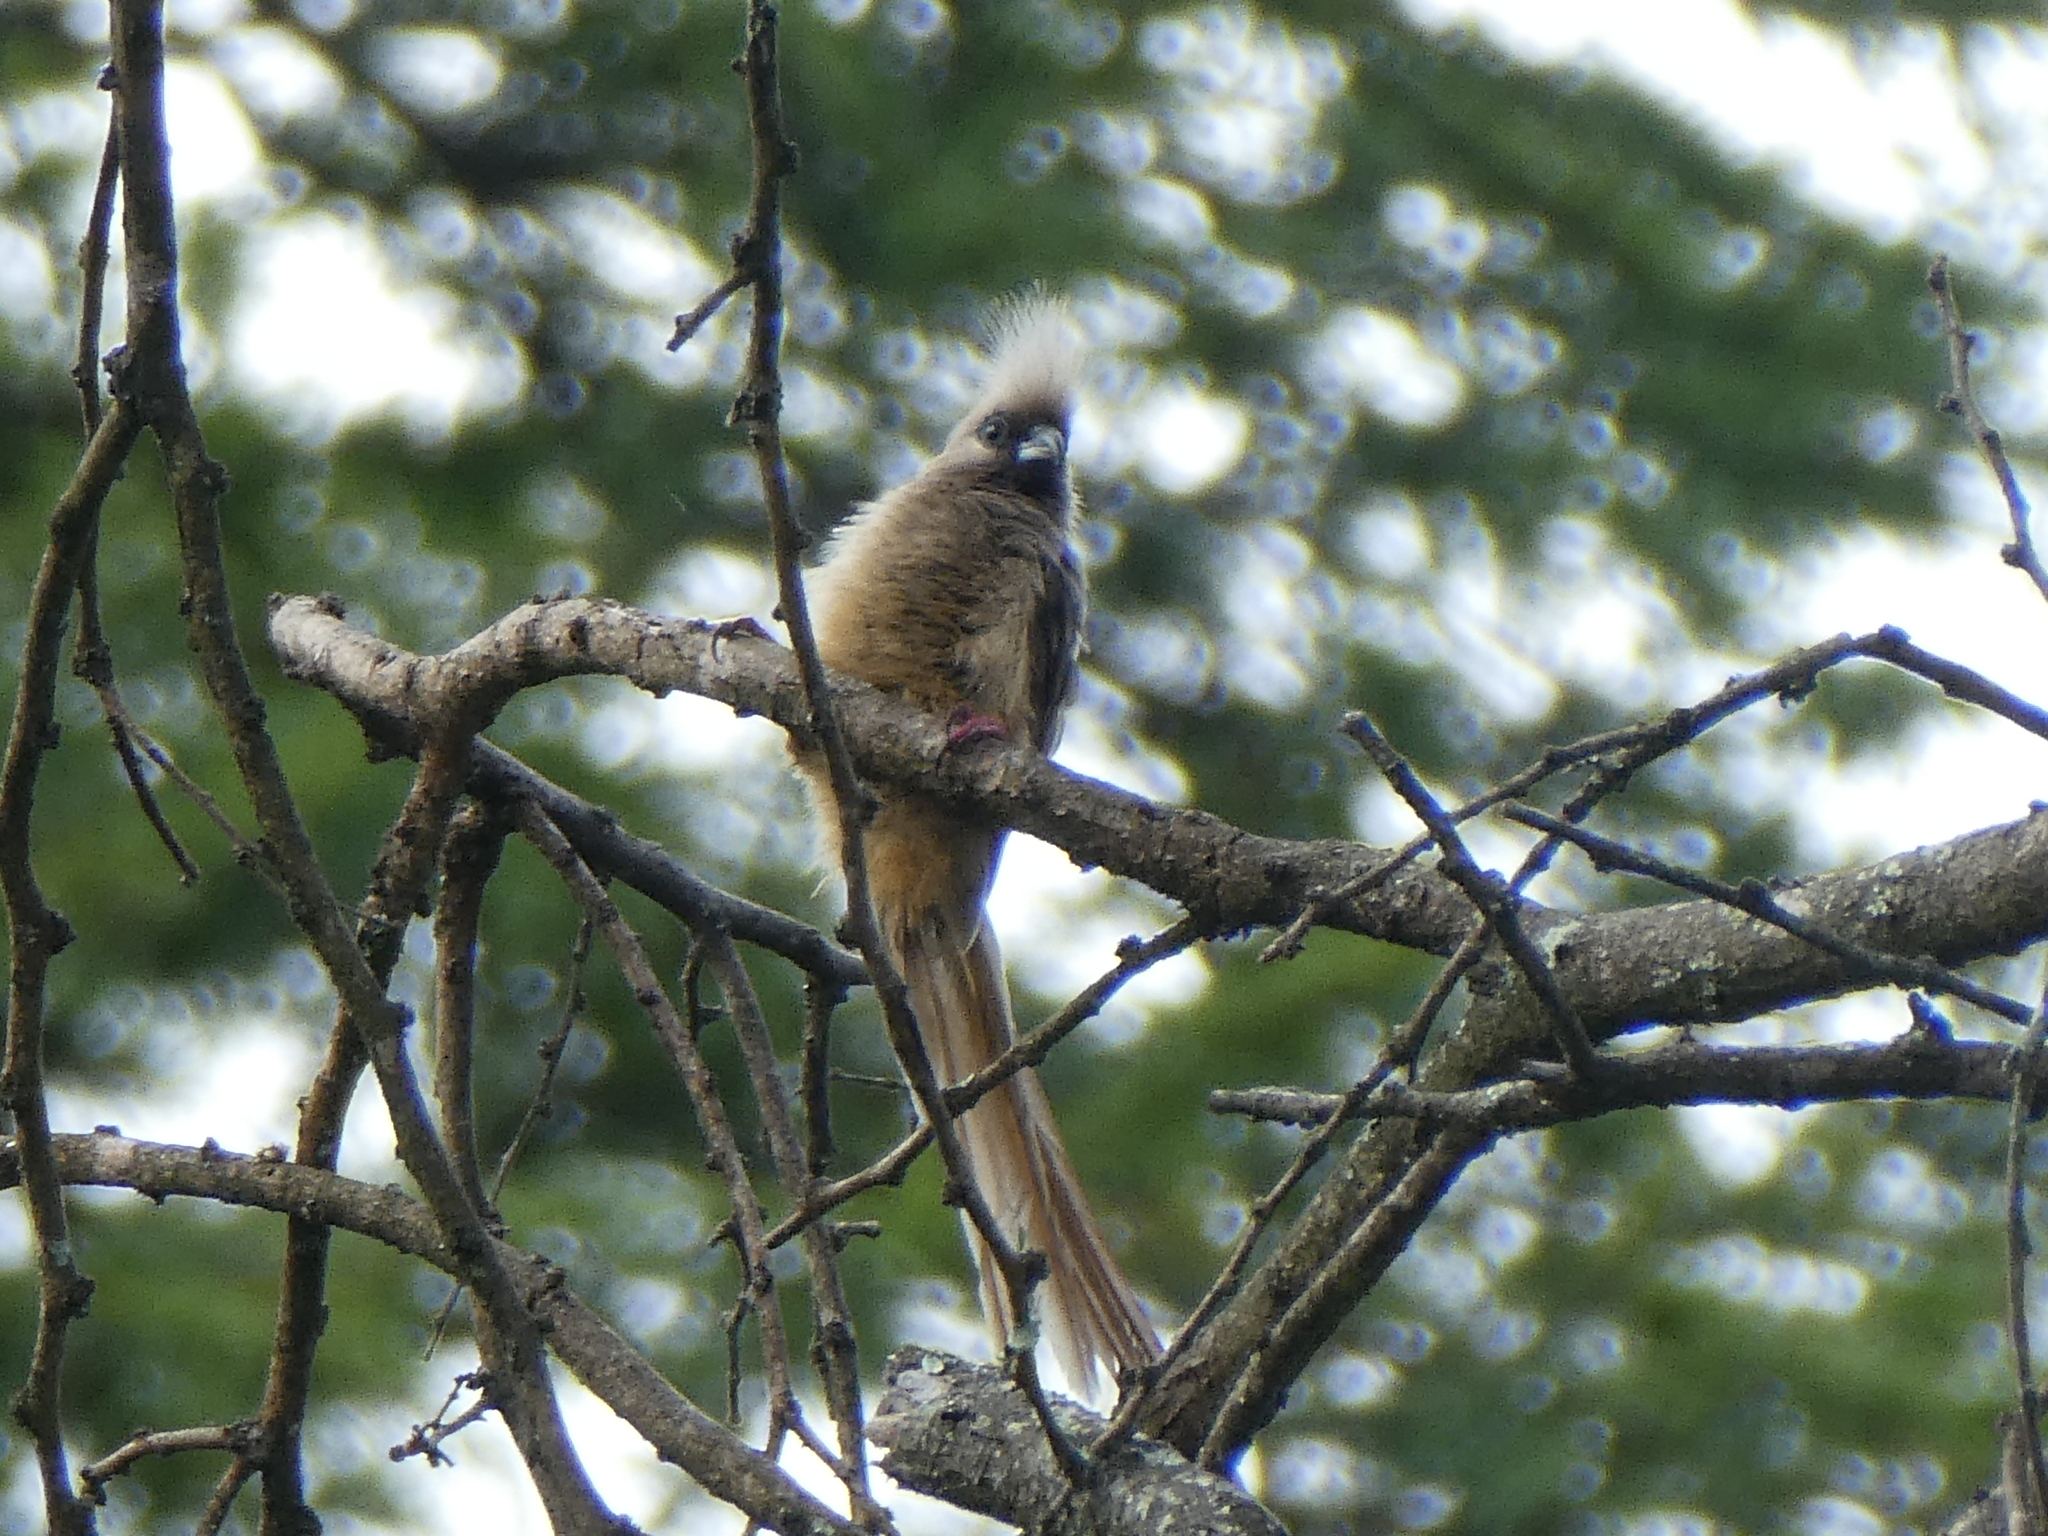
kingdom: Animalia
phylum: Chordata
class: Aves
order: Coliiformes
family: Coliidae
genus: Colius
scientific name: Colius striatus
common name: Speckled mousebird
